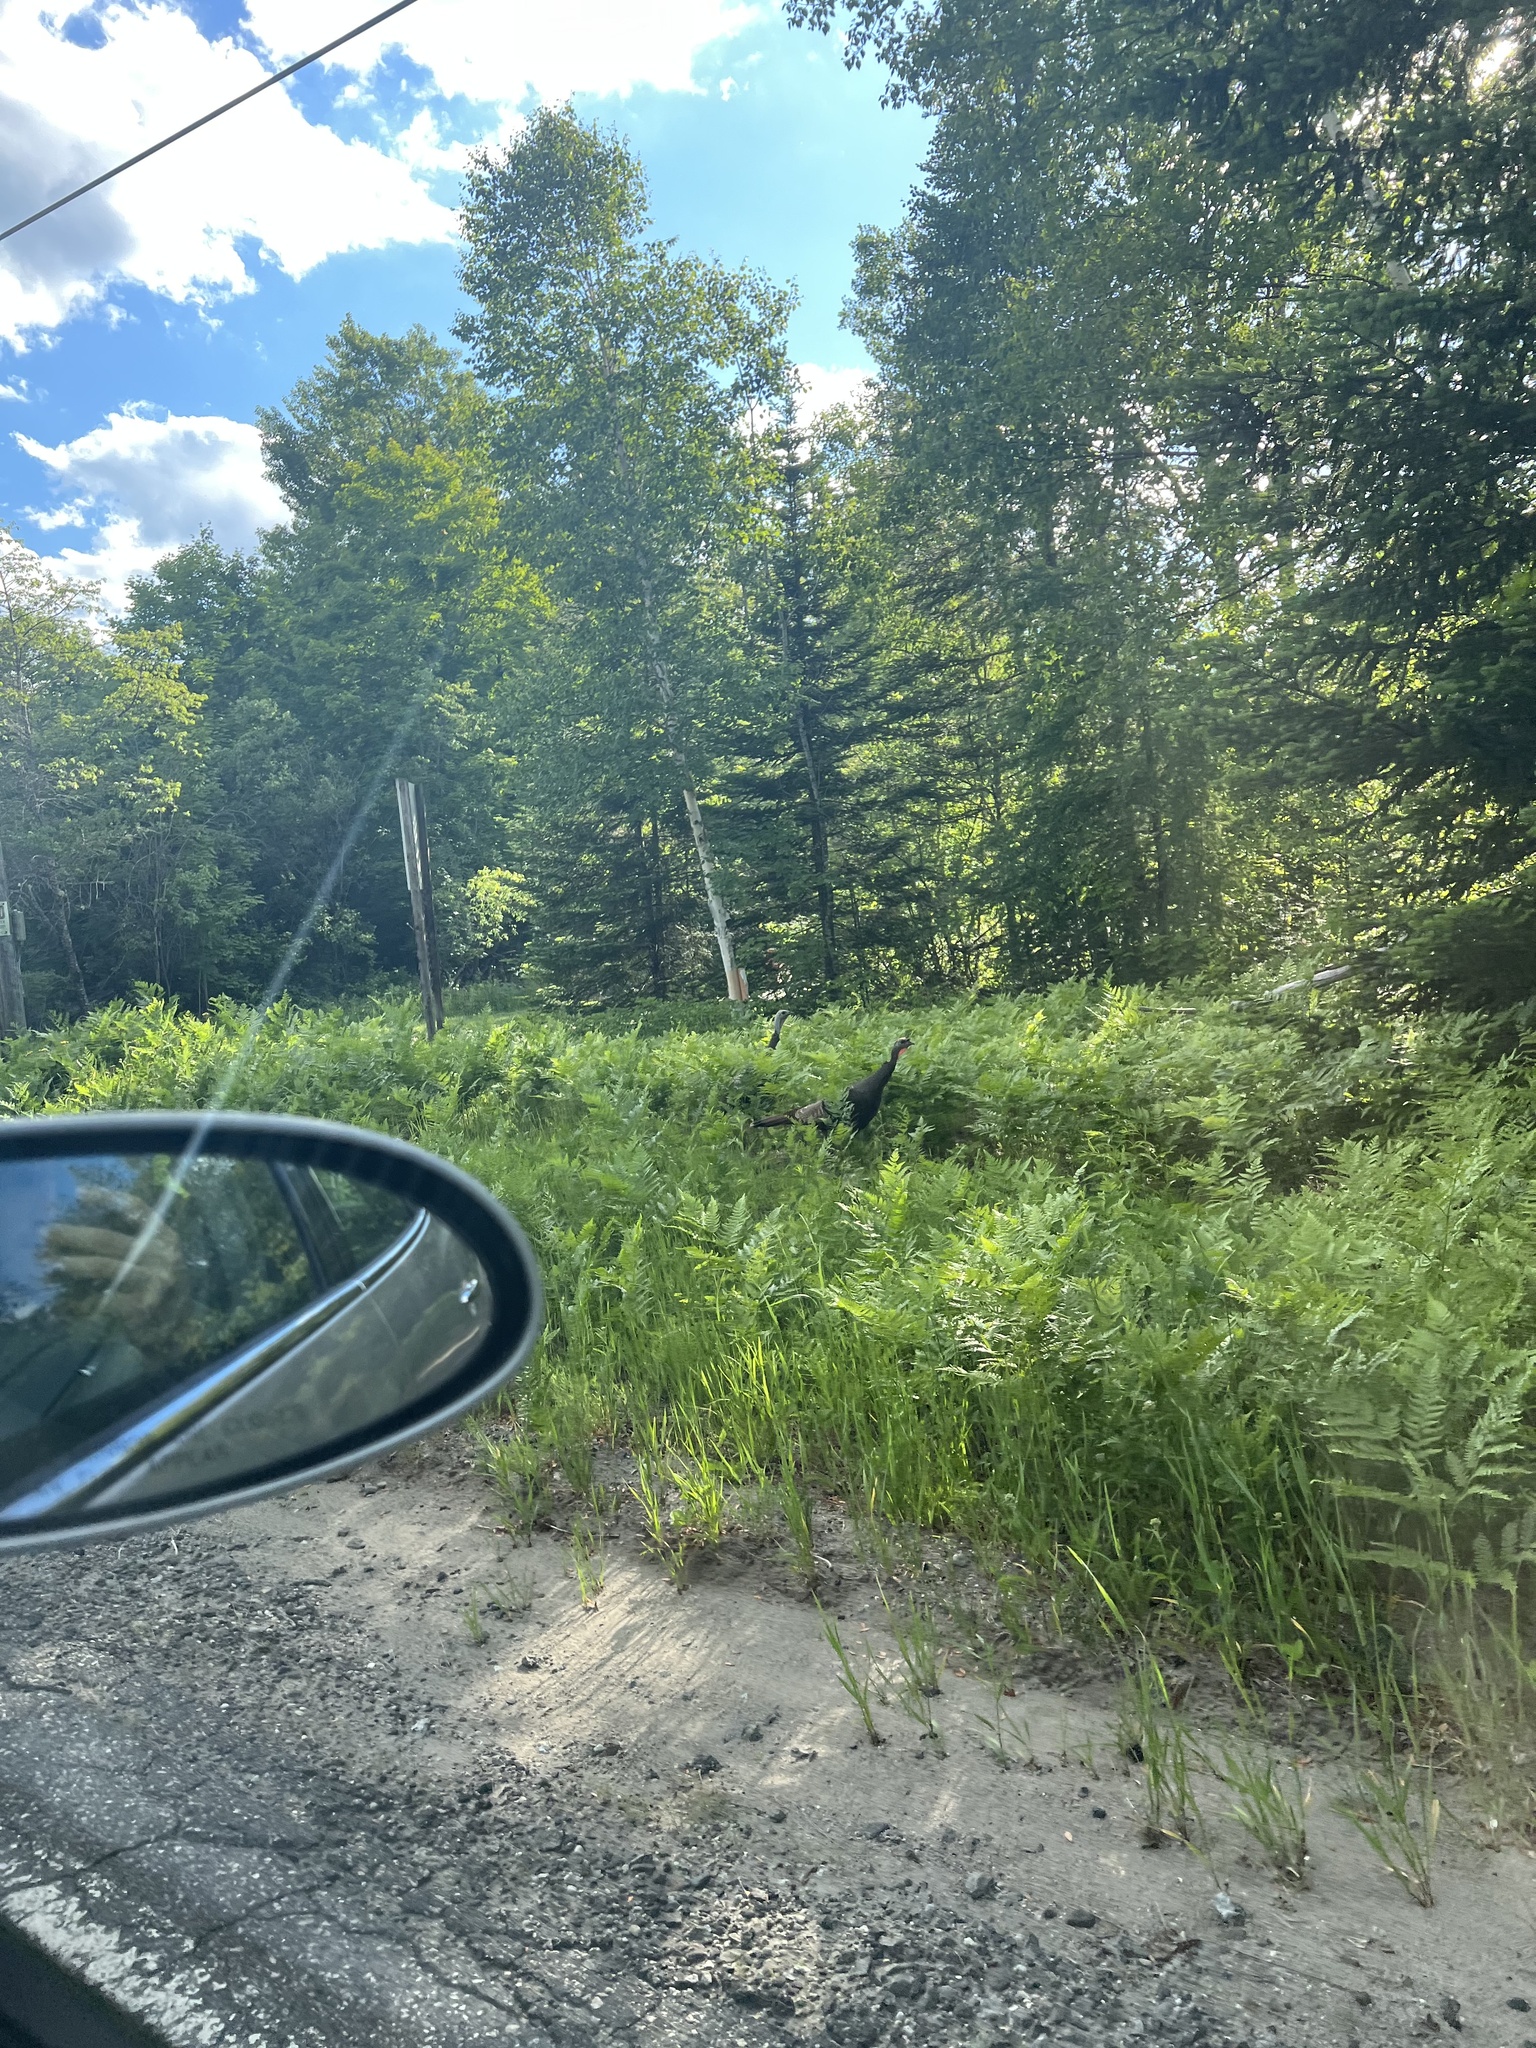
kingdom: Animalia
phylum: Chordata
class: Aves
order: Galliformes
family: Phasianidae
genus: Meleagris
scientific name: Meleagris gallopavo
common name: Wild turkey
